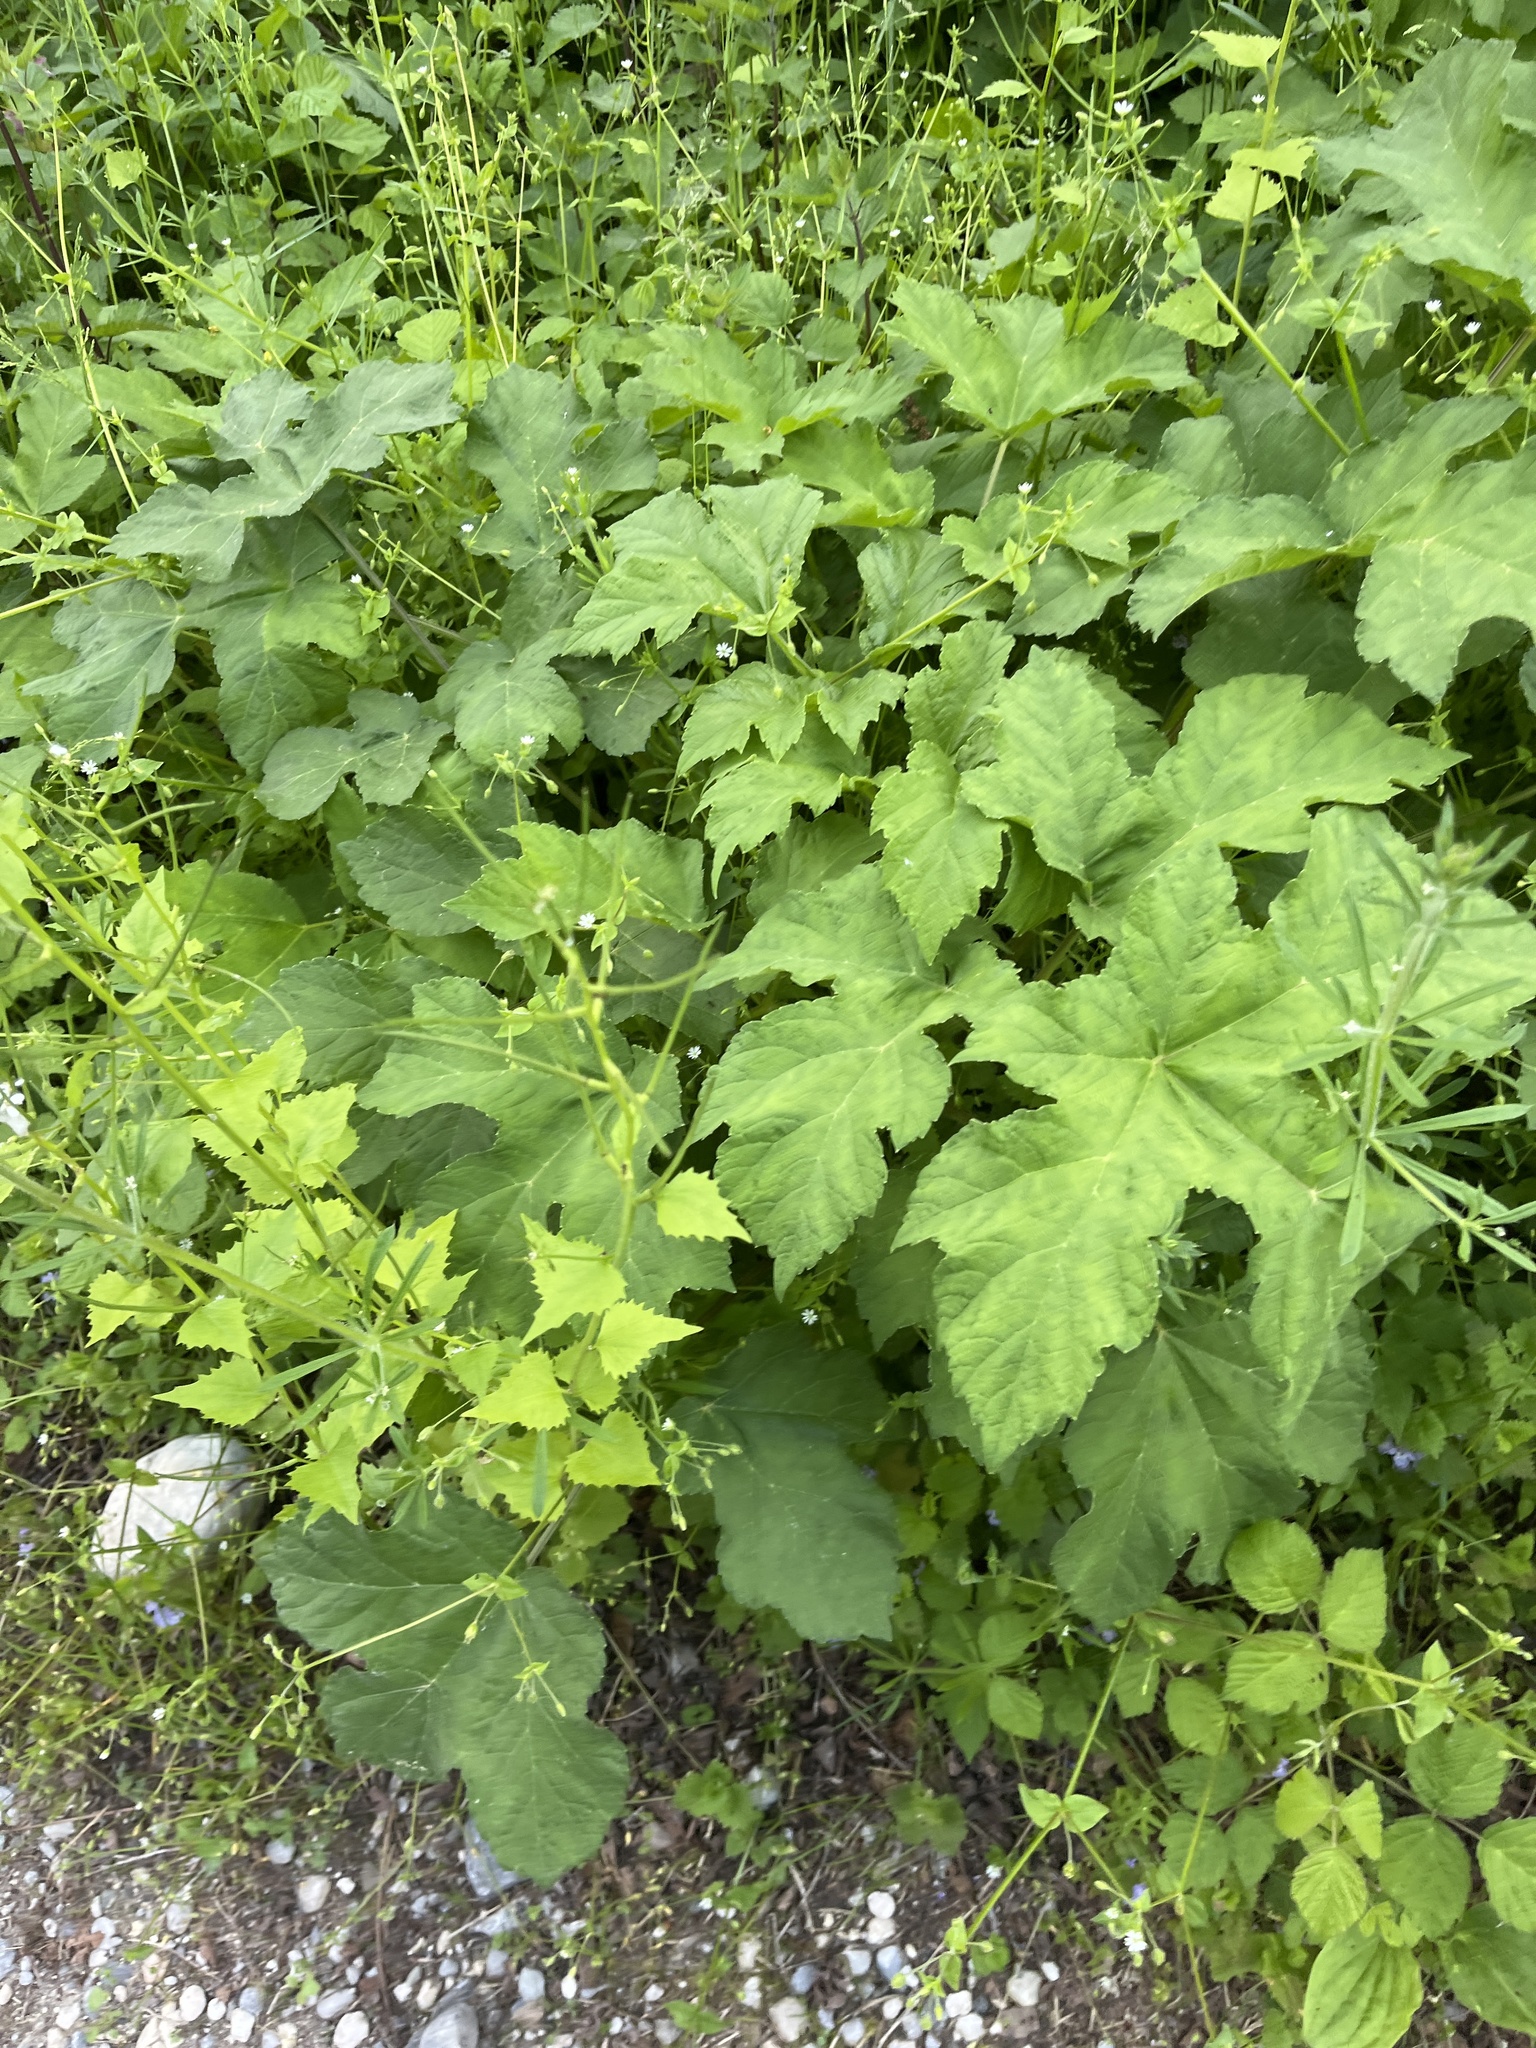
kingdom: Plantae
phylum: Tracheophyta
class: Magnoliopsida
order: Apiales
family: Apiaceae
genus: Heracleum
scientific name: Heracleum sphondylium
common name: Hogweed
